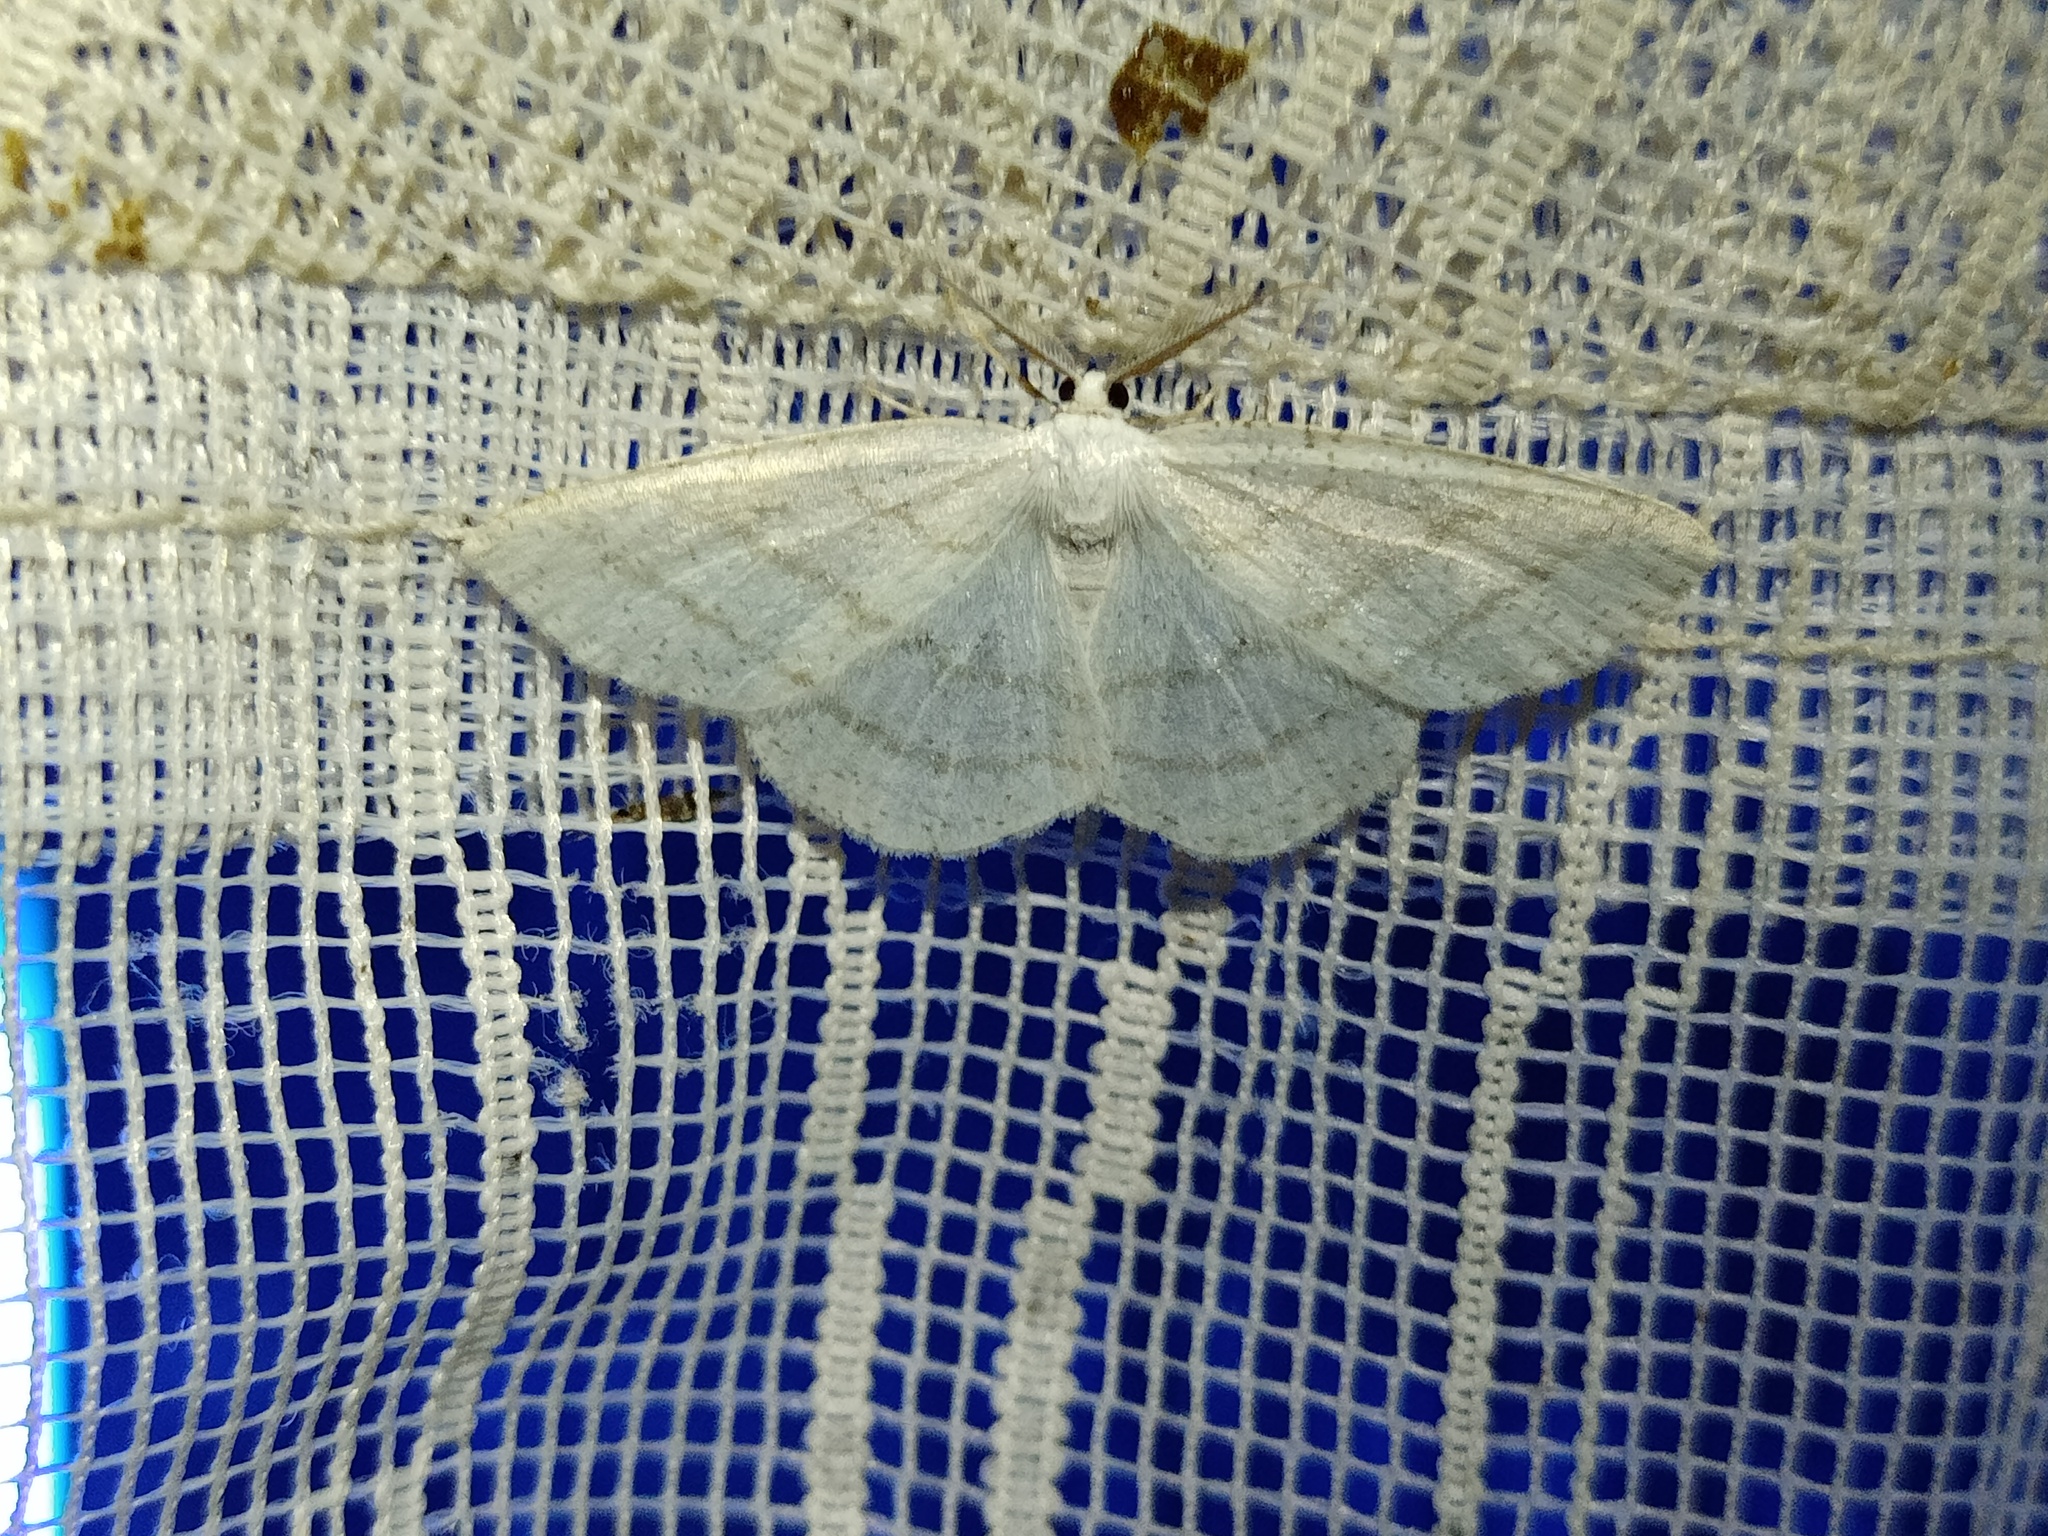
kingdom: Animalia
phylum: Arthropoda
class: Insecta
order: Lepidoptera
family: Geometridae
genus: Cabera
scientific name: Cabera pusaria
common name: Common white wave
